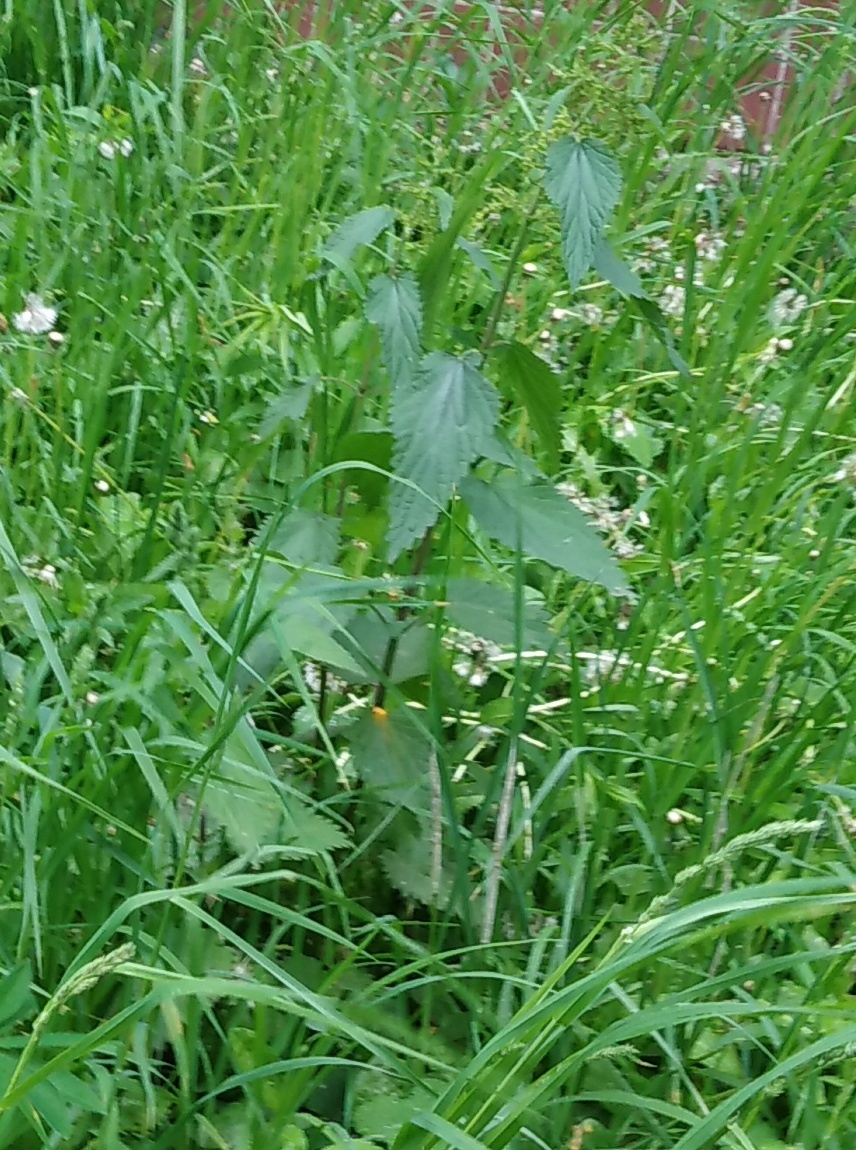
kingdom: Plantae
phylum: Tracheophyta
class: Magnoliopsida
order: Rosales
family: Urticaceae
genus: Urtica
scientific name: Urtica dioica
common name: Common nettle
